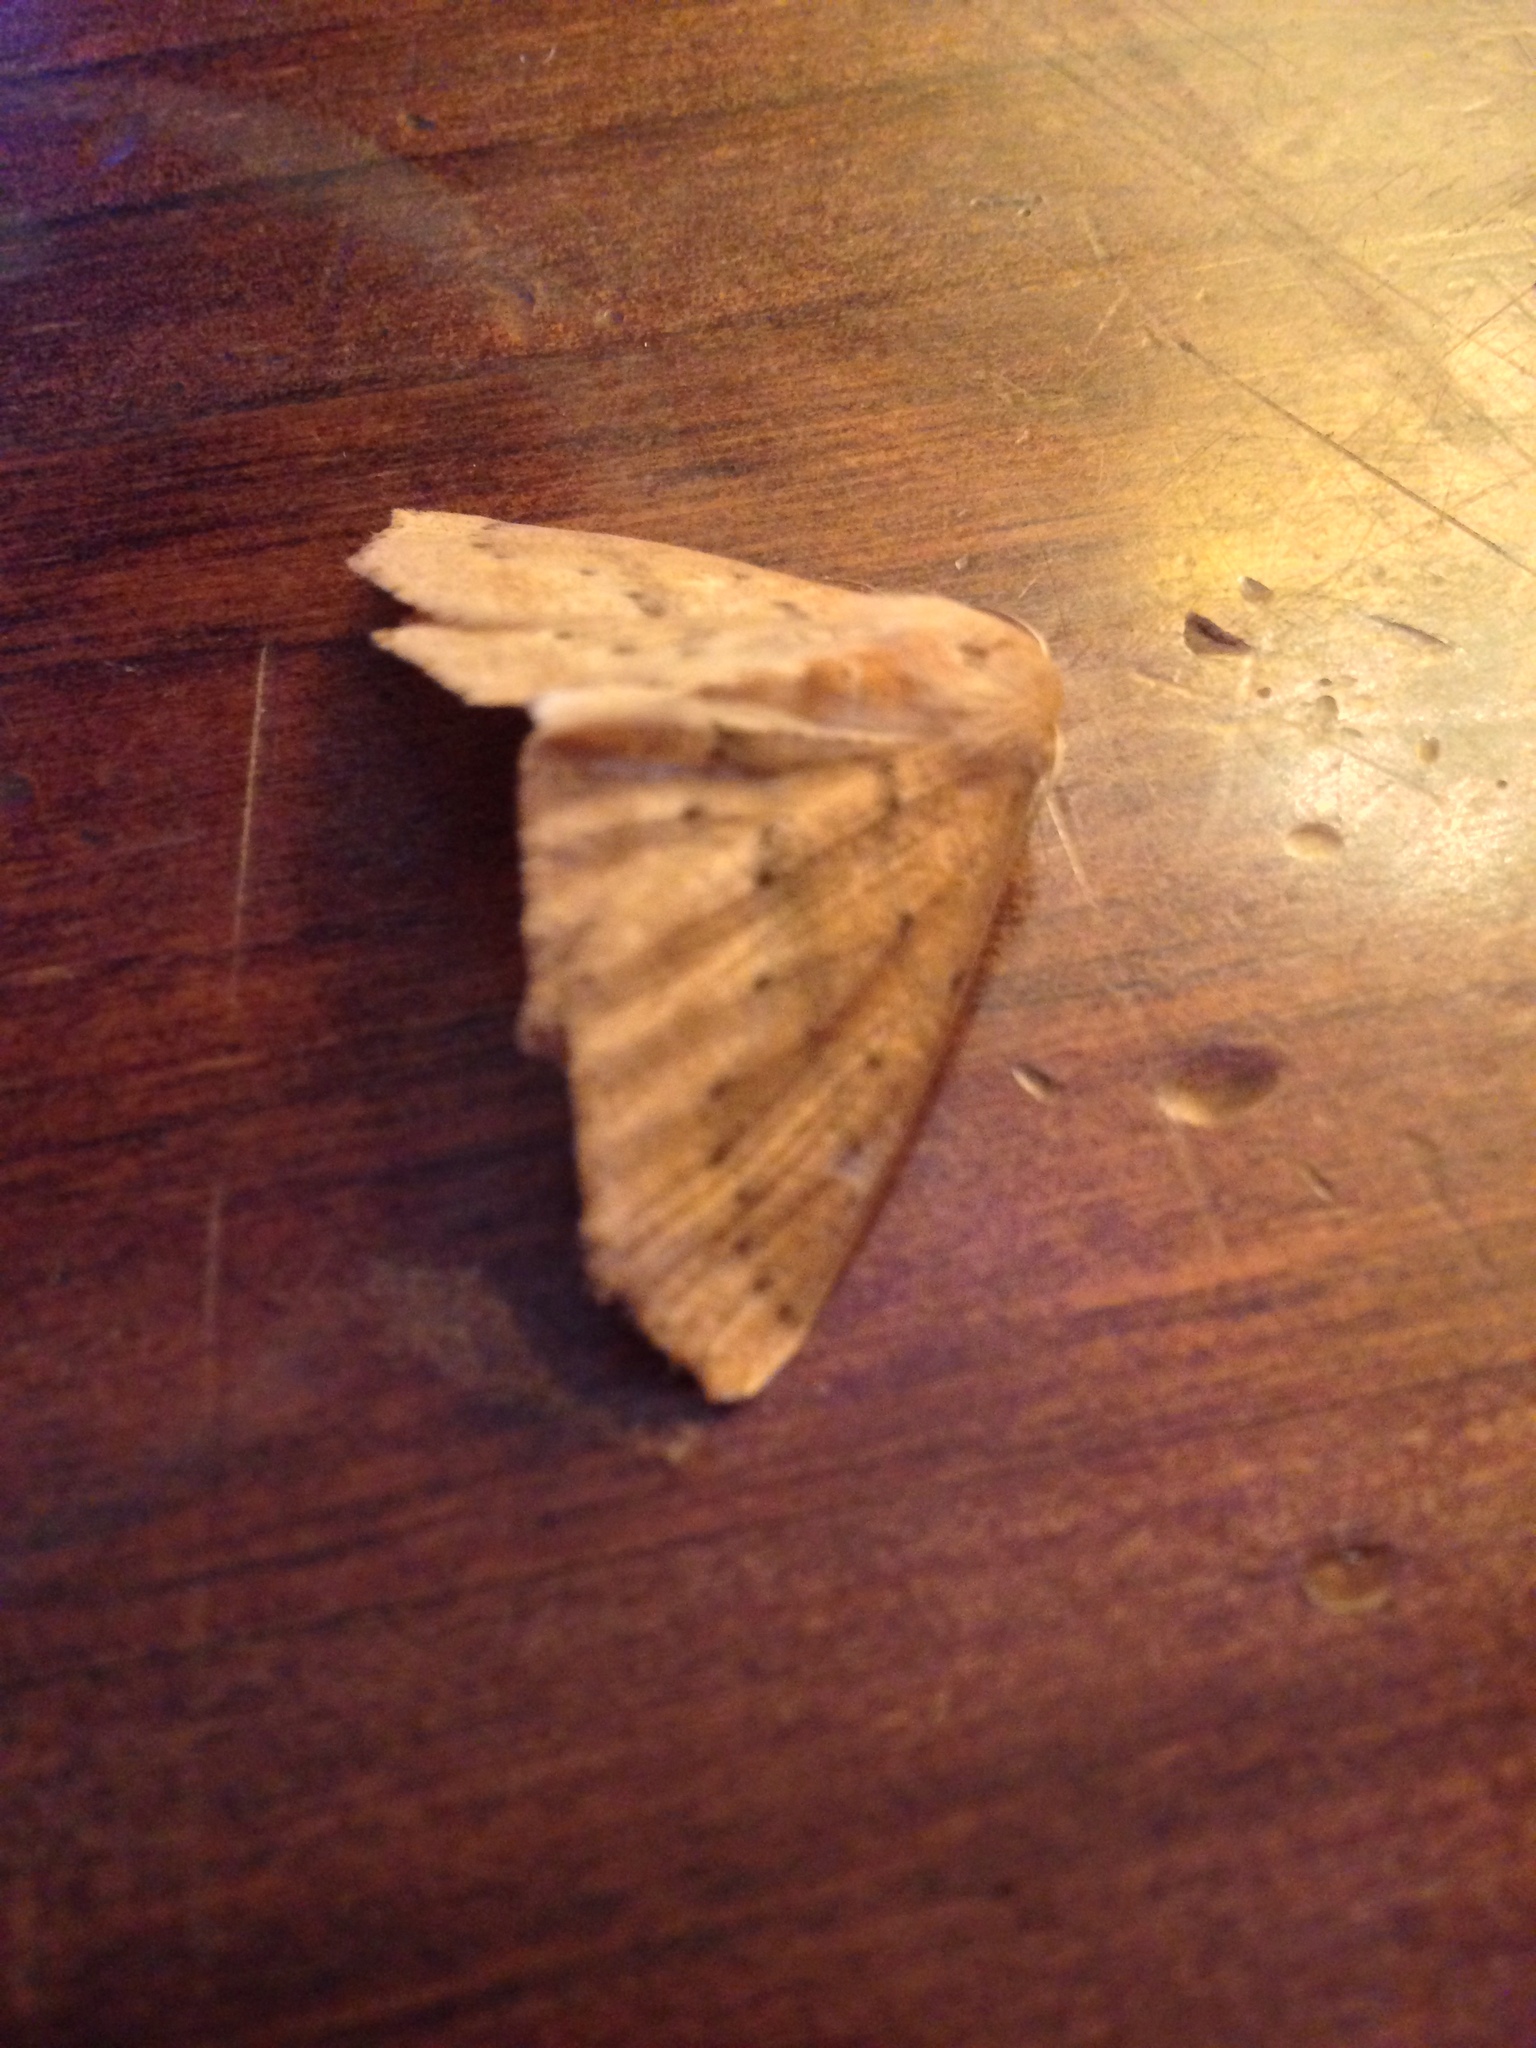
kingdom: Animalia
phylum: Arthropoda
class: Insecta
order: Lepidoptera
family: Geometridae
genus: Sabulodes
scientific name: Sabulodes aegrotata
